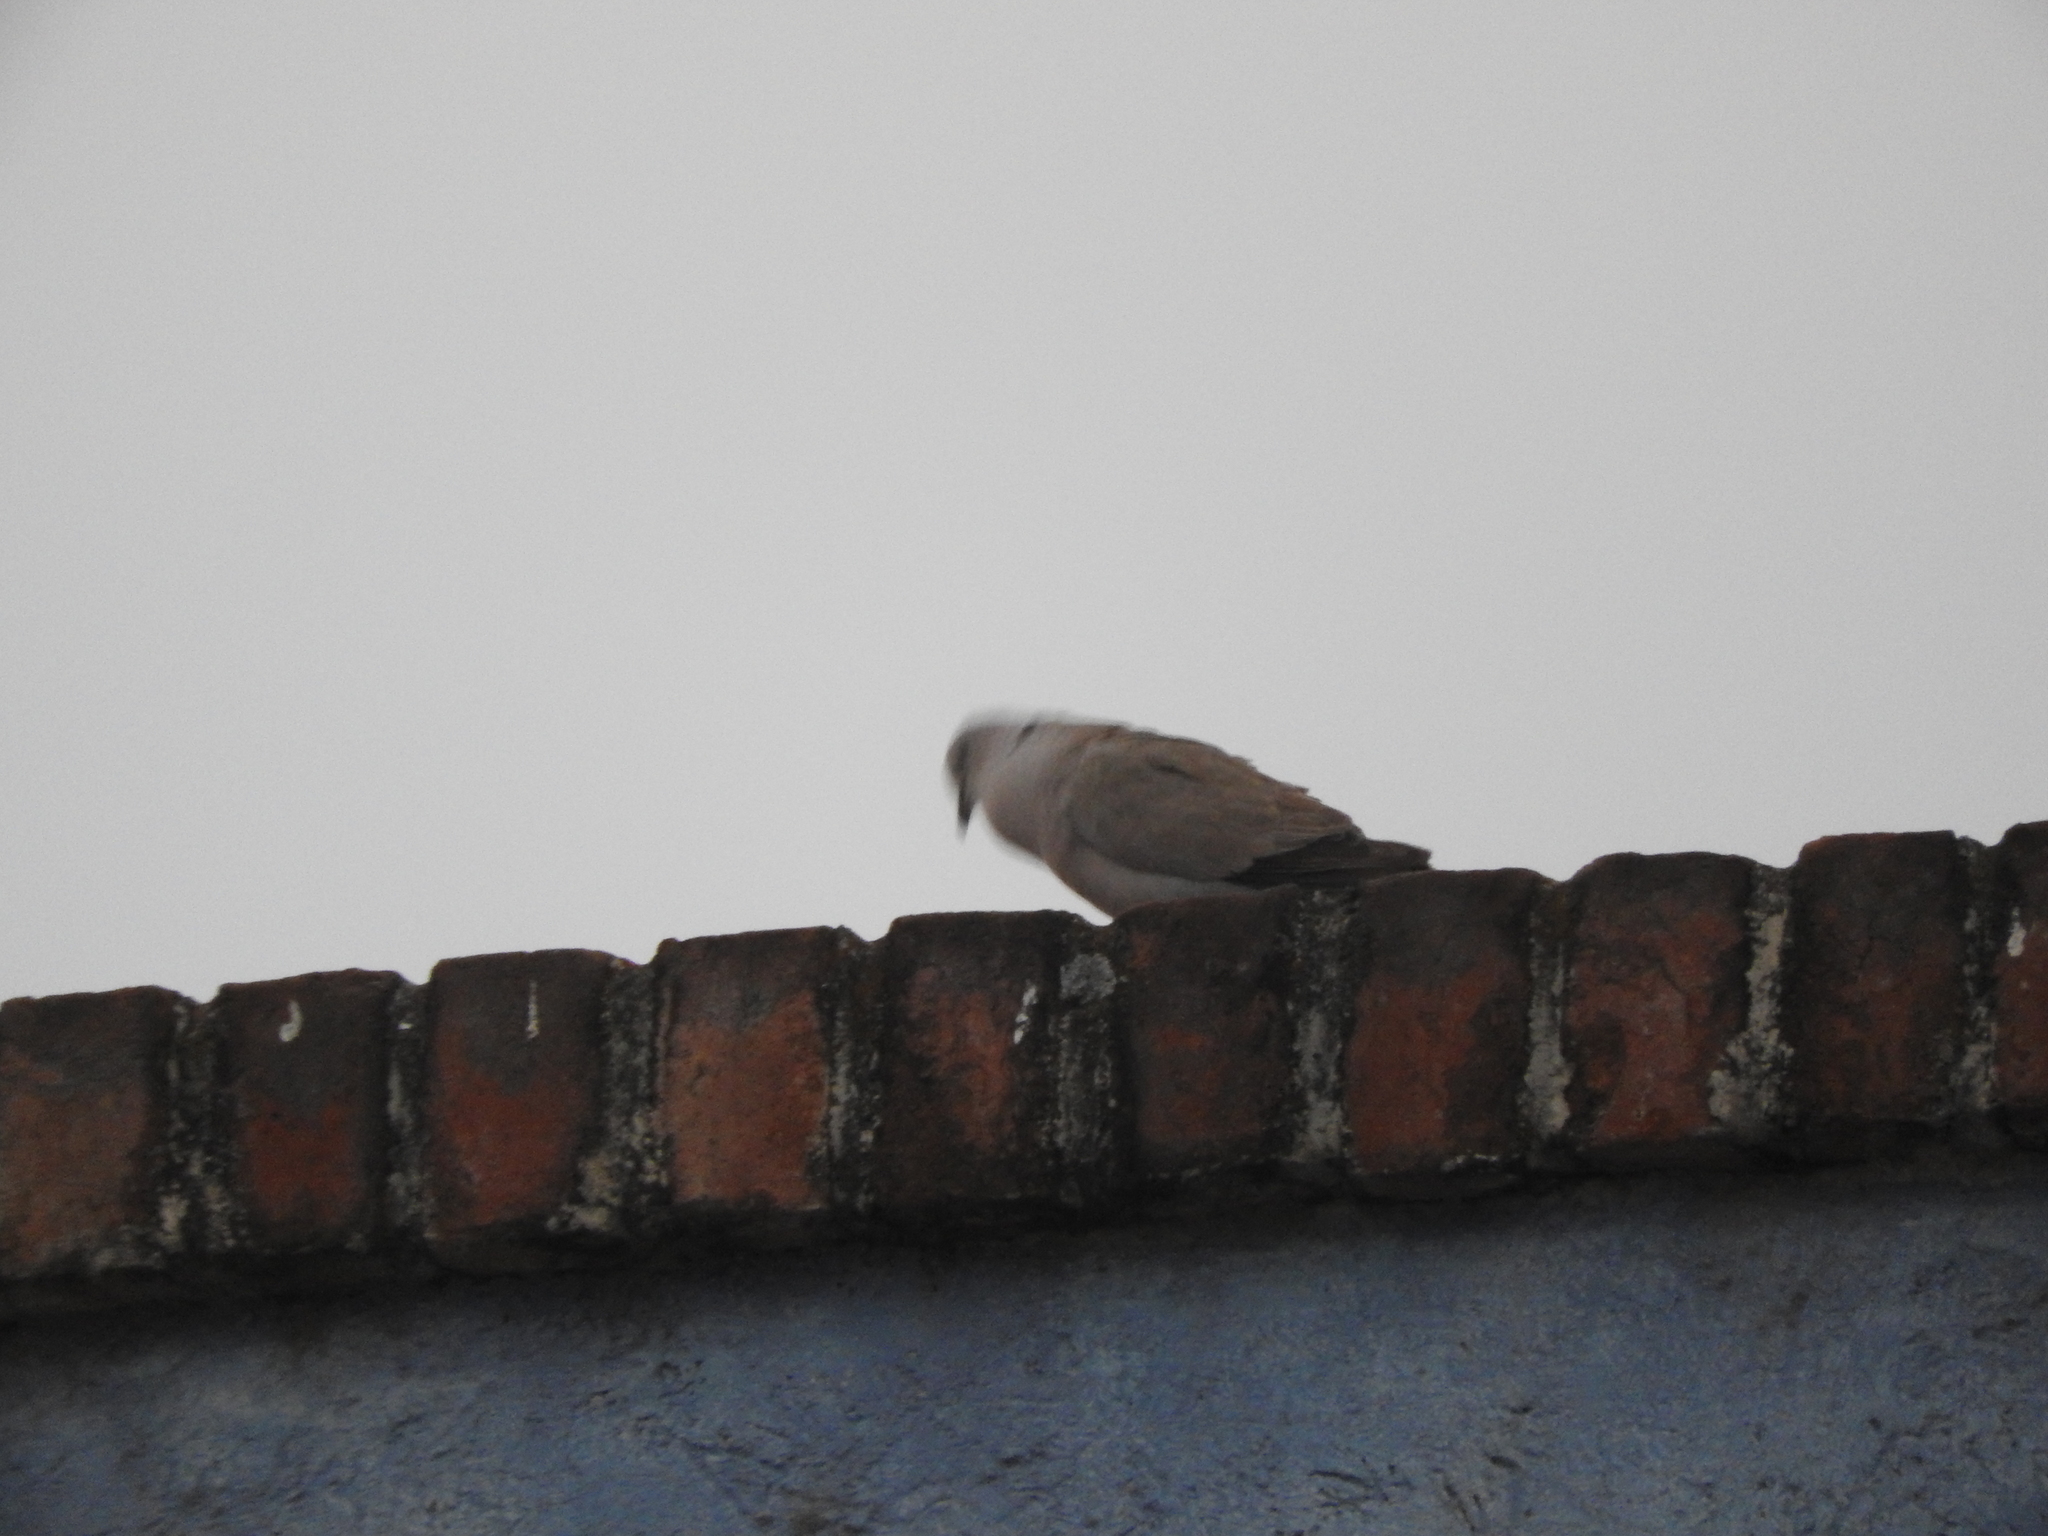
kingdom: Animalia
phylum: Chordata
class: Aves
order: Columbiformes
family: Columbidae
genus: Streptopelia
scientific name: Streptopelia decaocto
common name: Eurasian collared dove
